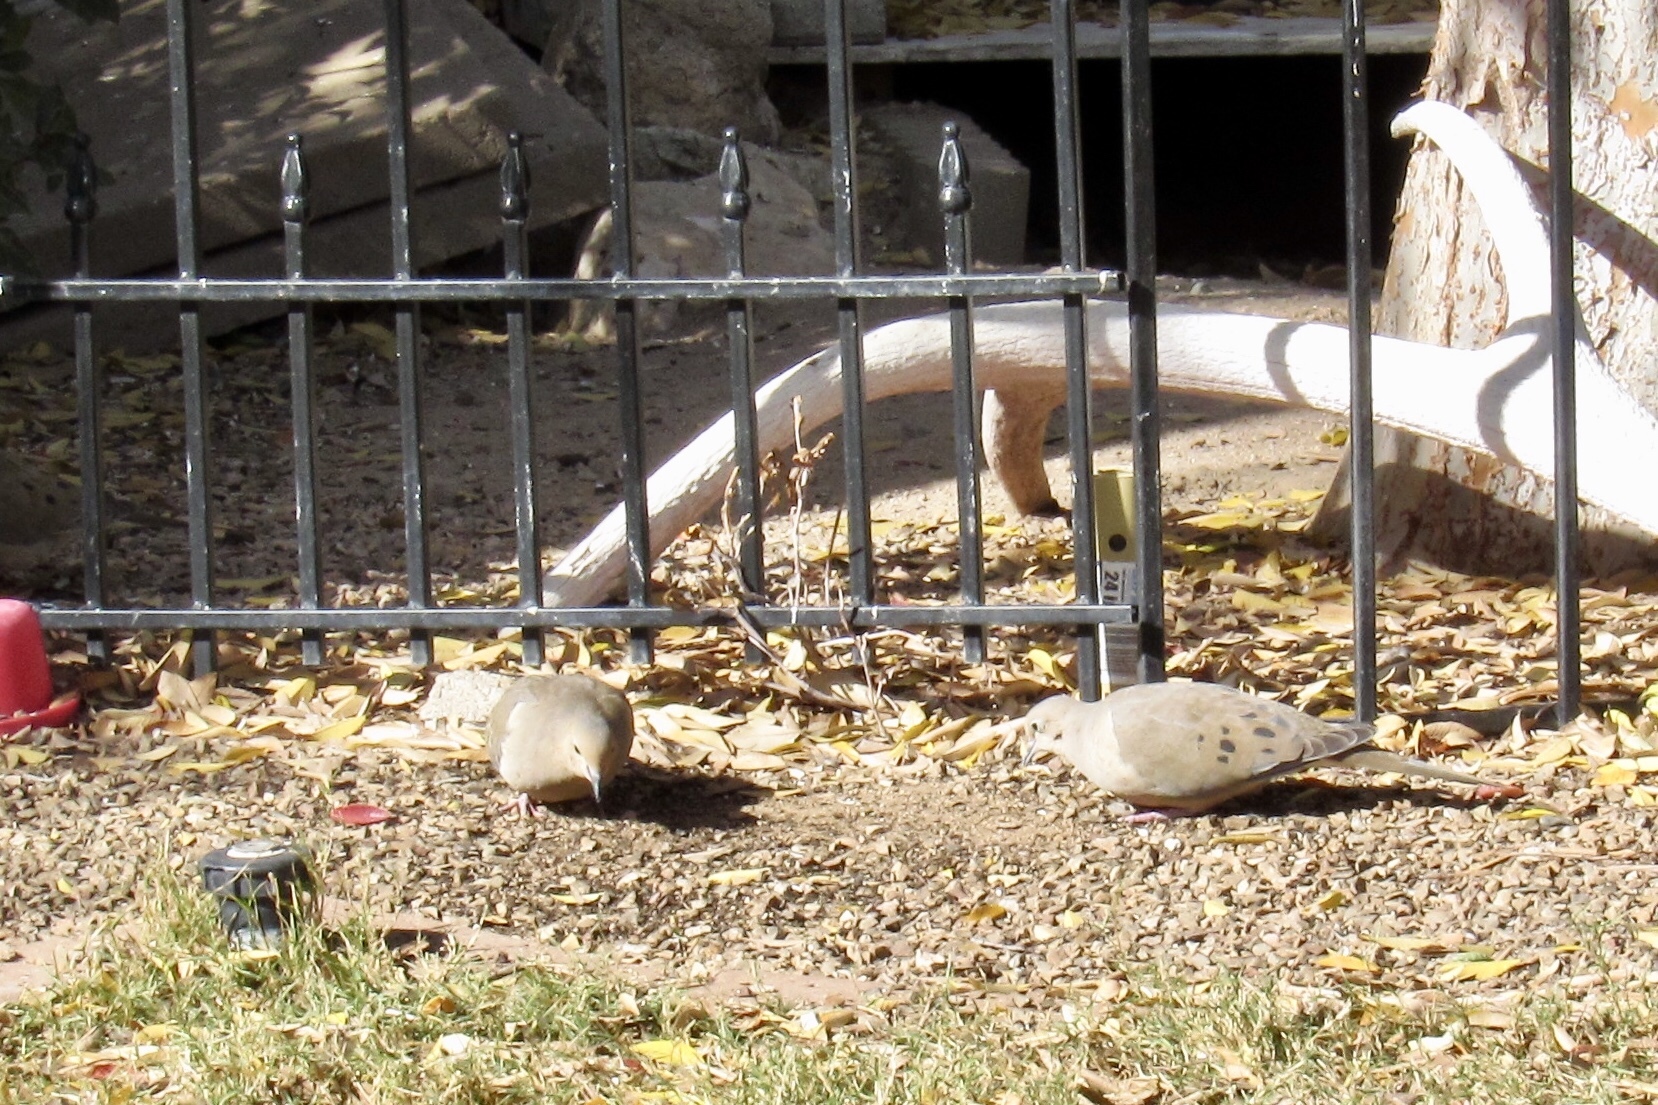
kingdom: Animalia
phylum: Chordata
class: Aves
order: Columbiformes
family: Columbidae
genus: Zenaida
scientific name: Zenaida macroura
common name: Mourning dove
